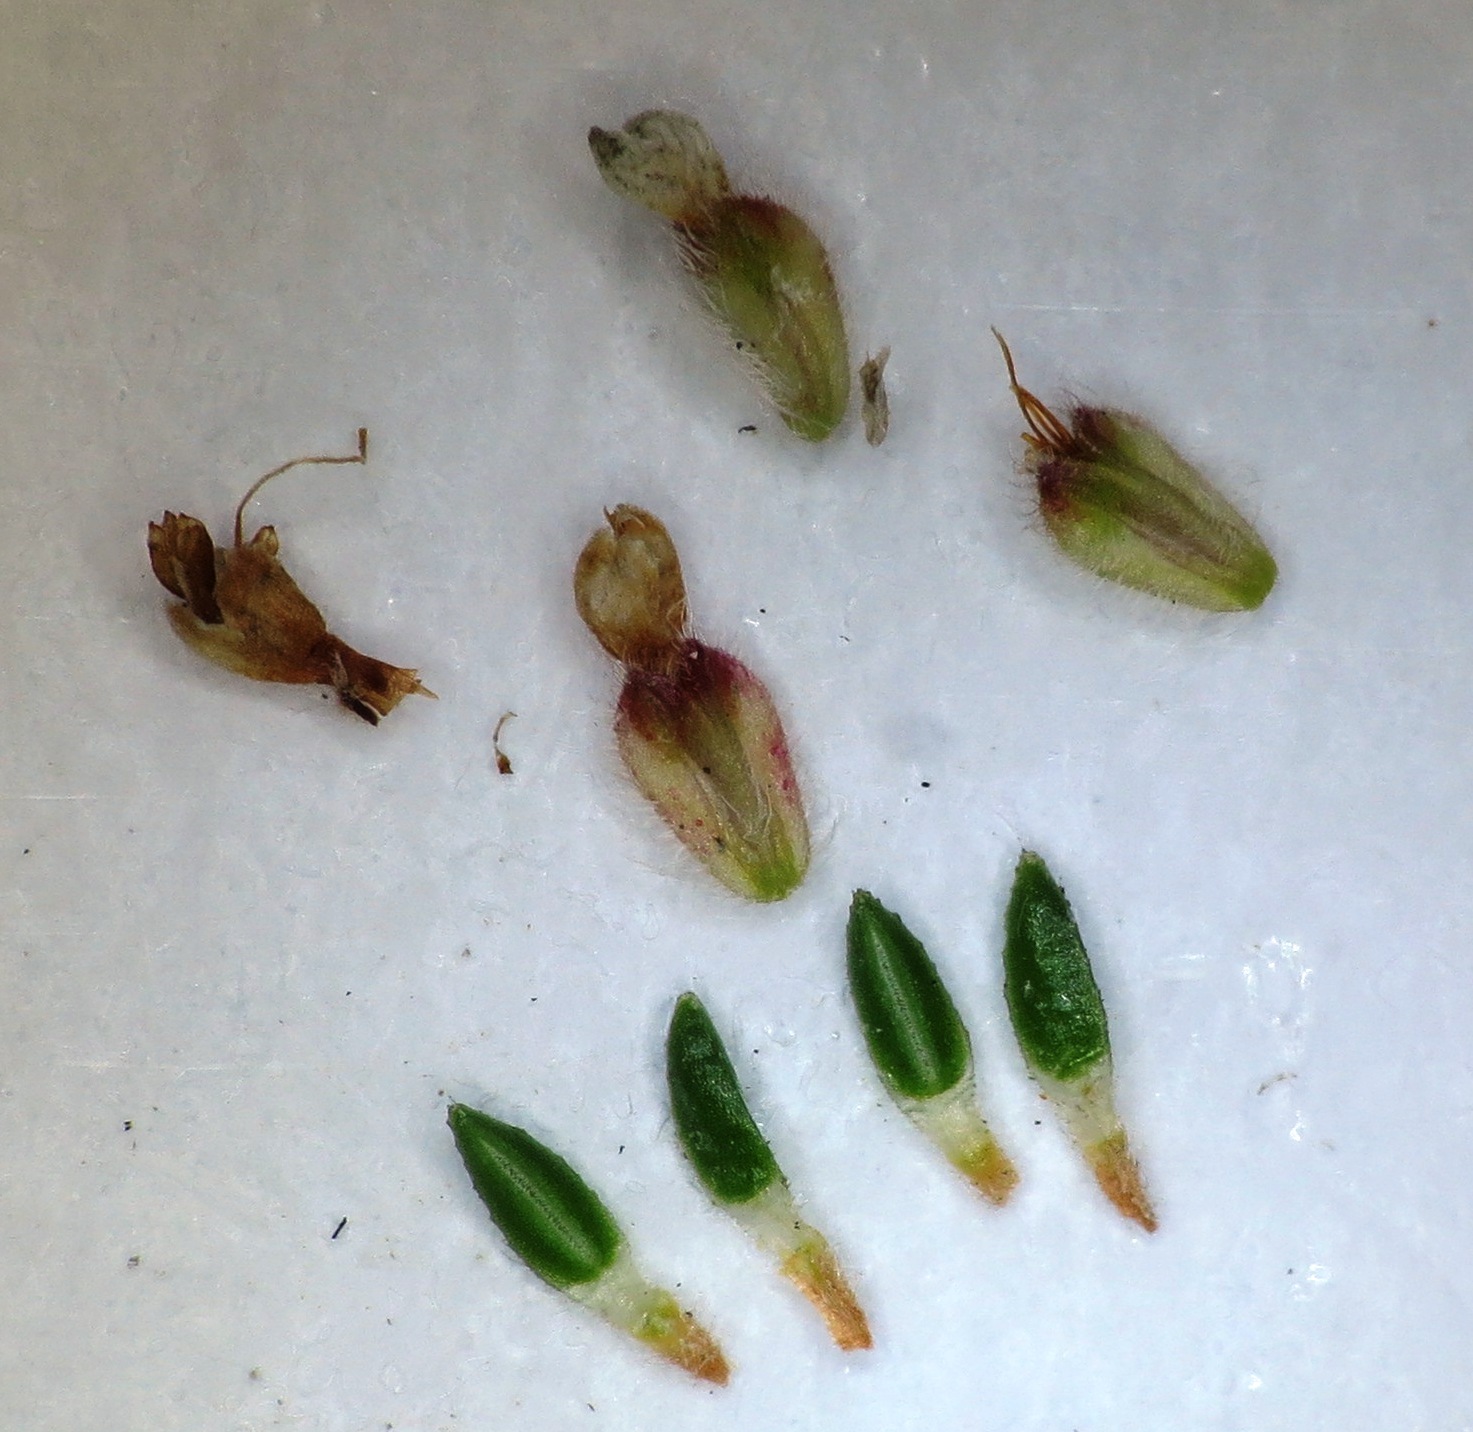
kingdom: Plantae
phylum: Tracheophyta
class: Magnoliopsida
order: Ericales
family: Ericaceae
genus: Erica
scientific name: Erica globiceps
